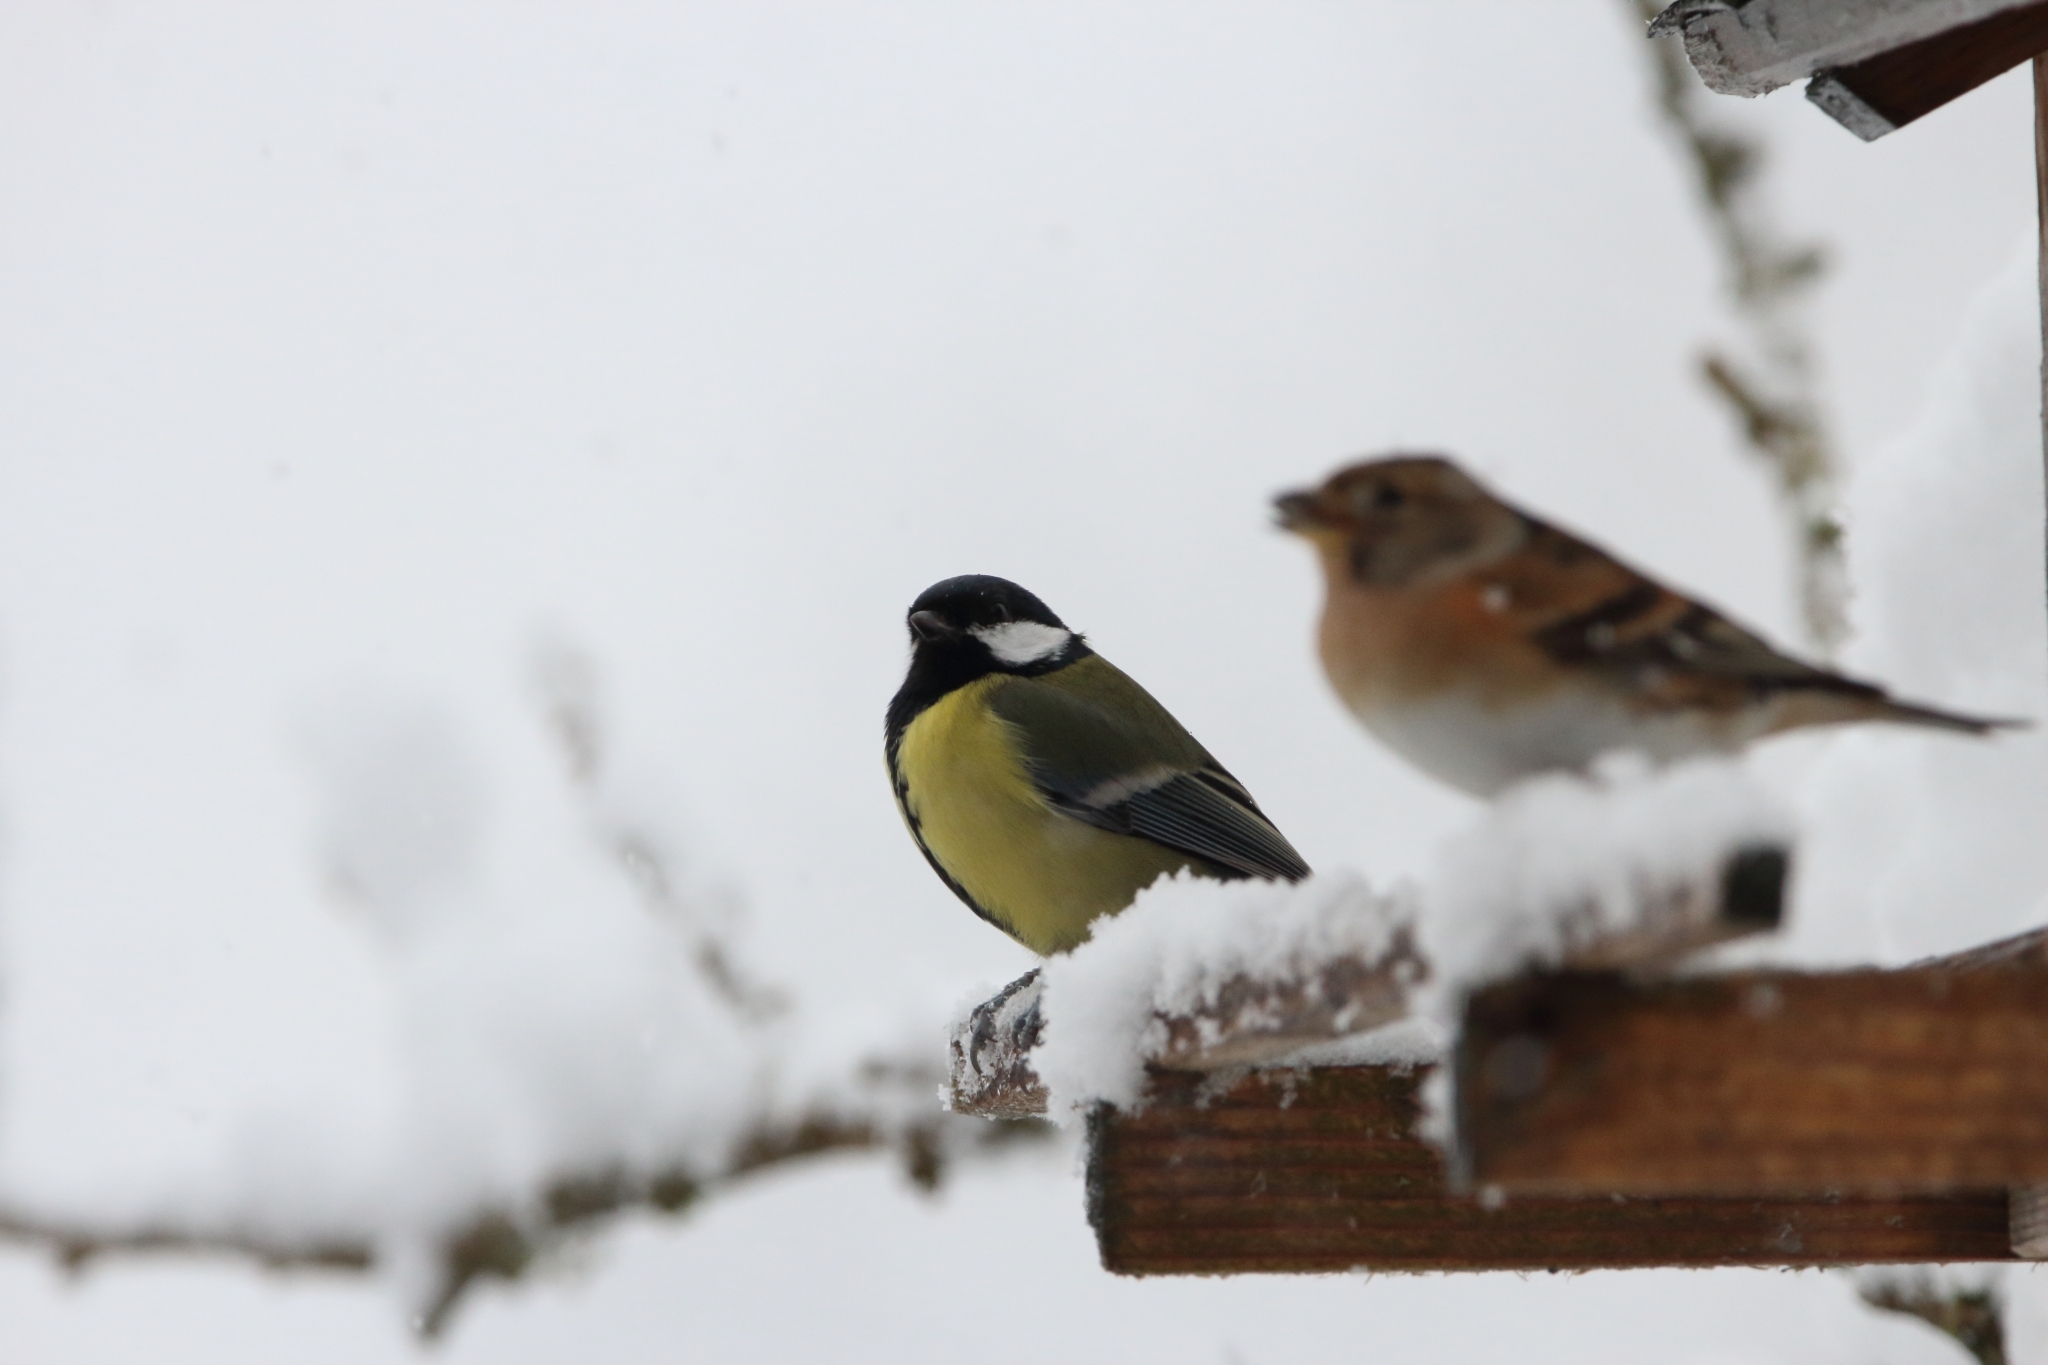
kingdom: Animalia
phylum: Chordata
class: Aves
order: Passeriformes
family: Paridae
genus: Parus
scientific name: Parus major
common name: Great tit
